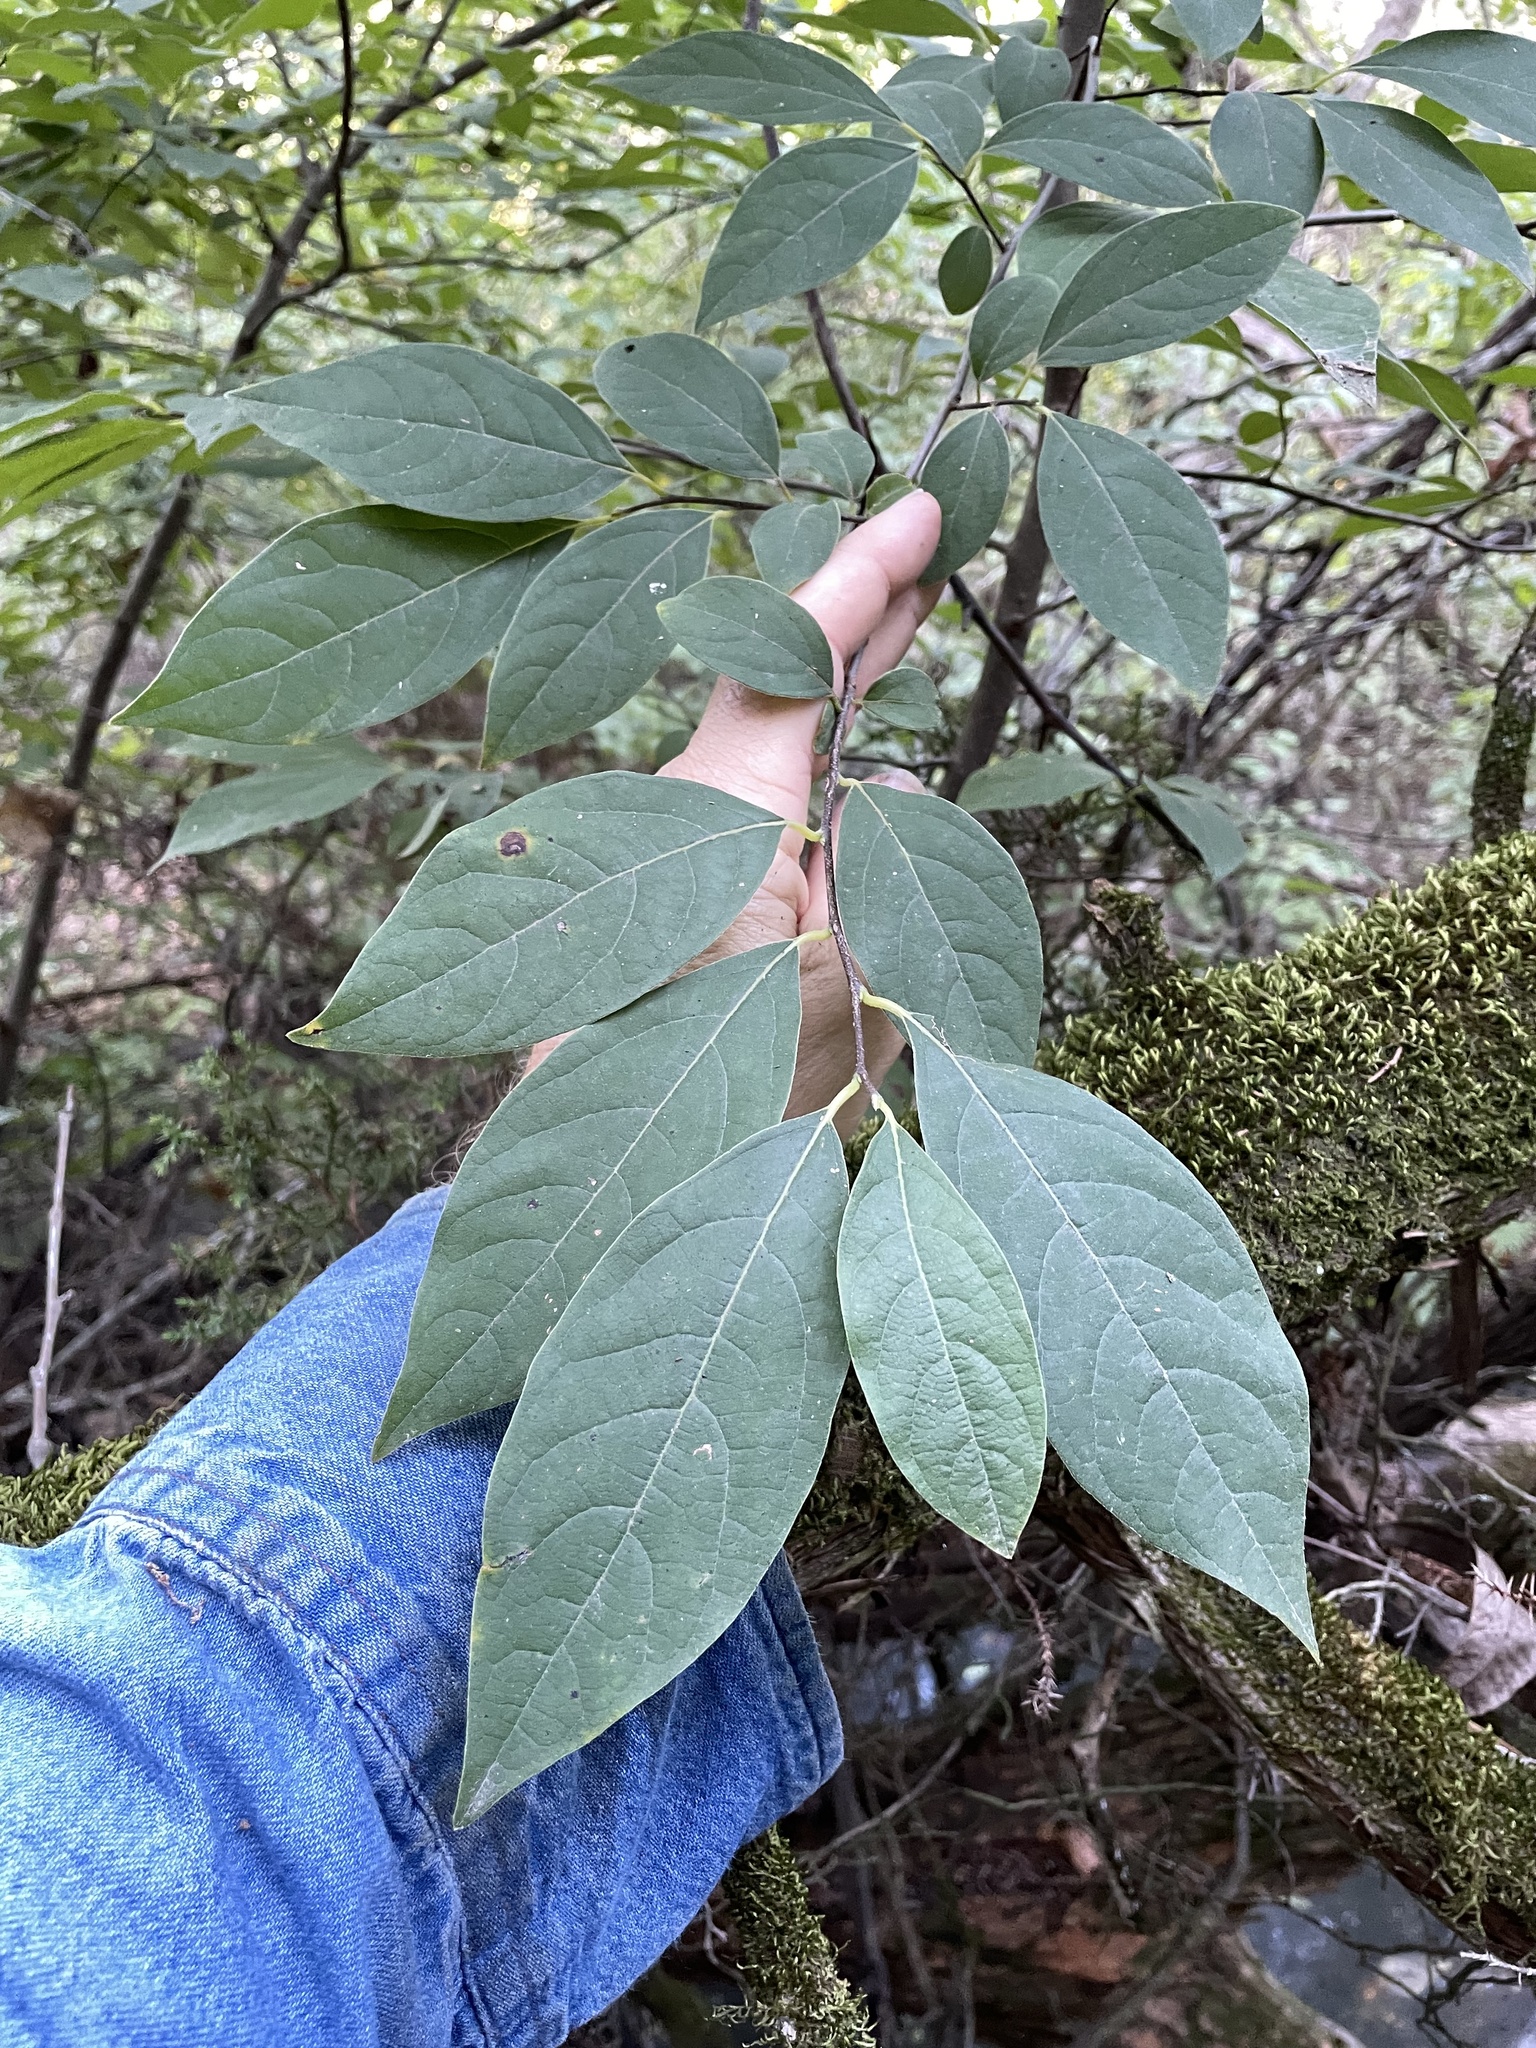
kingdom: Plantae
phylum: Tracheophyta
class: Magnoliopsida
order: Laurales
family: Lauraceae
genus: Lindera
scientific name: Lindera benzoin
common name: Spicebush
